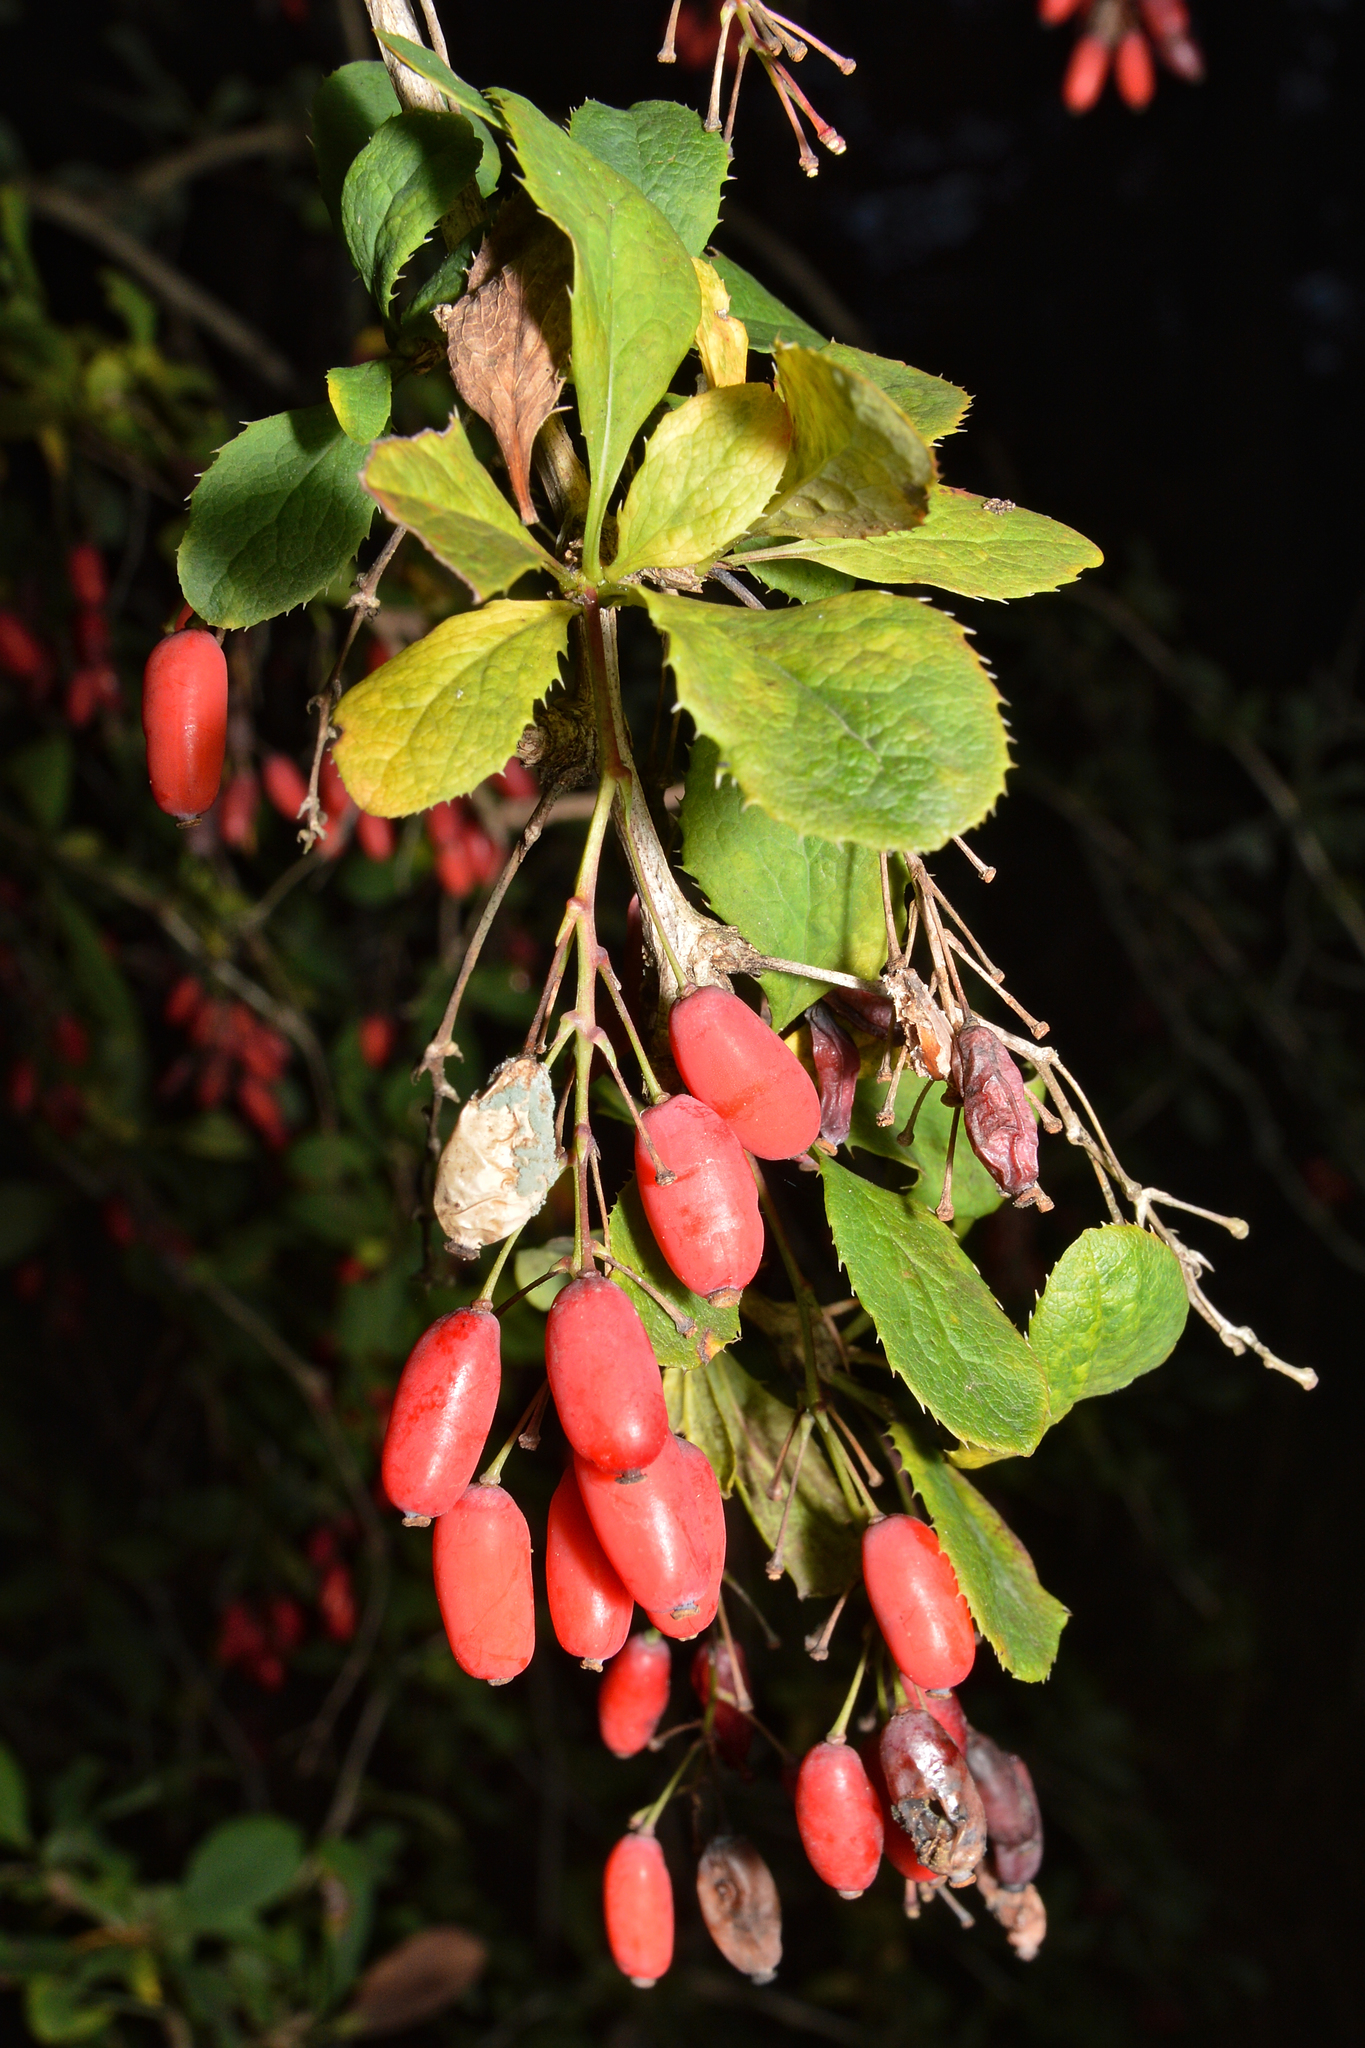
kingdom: Plantae
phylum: Tracheophyta
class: Magnoliopsida
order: Ranunculales
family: Berberidaceae
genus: Berberis
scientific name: Berberis vulgaris
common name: Barberry
